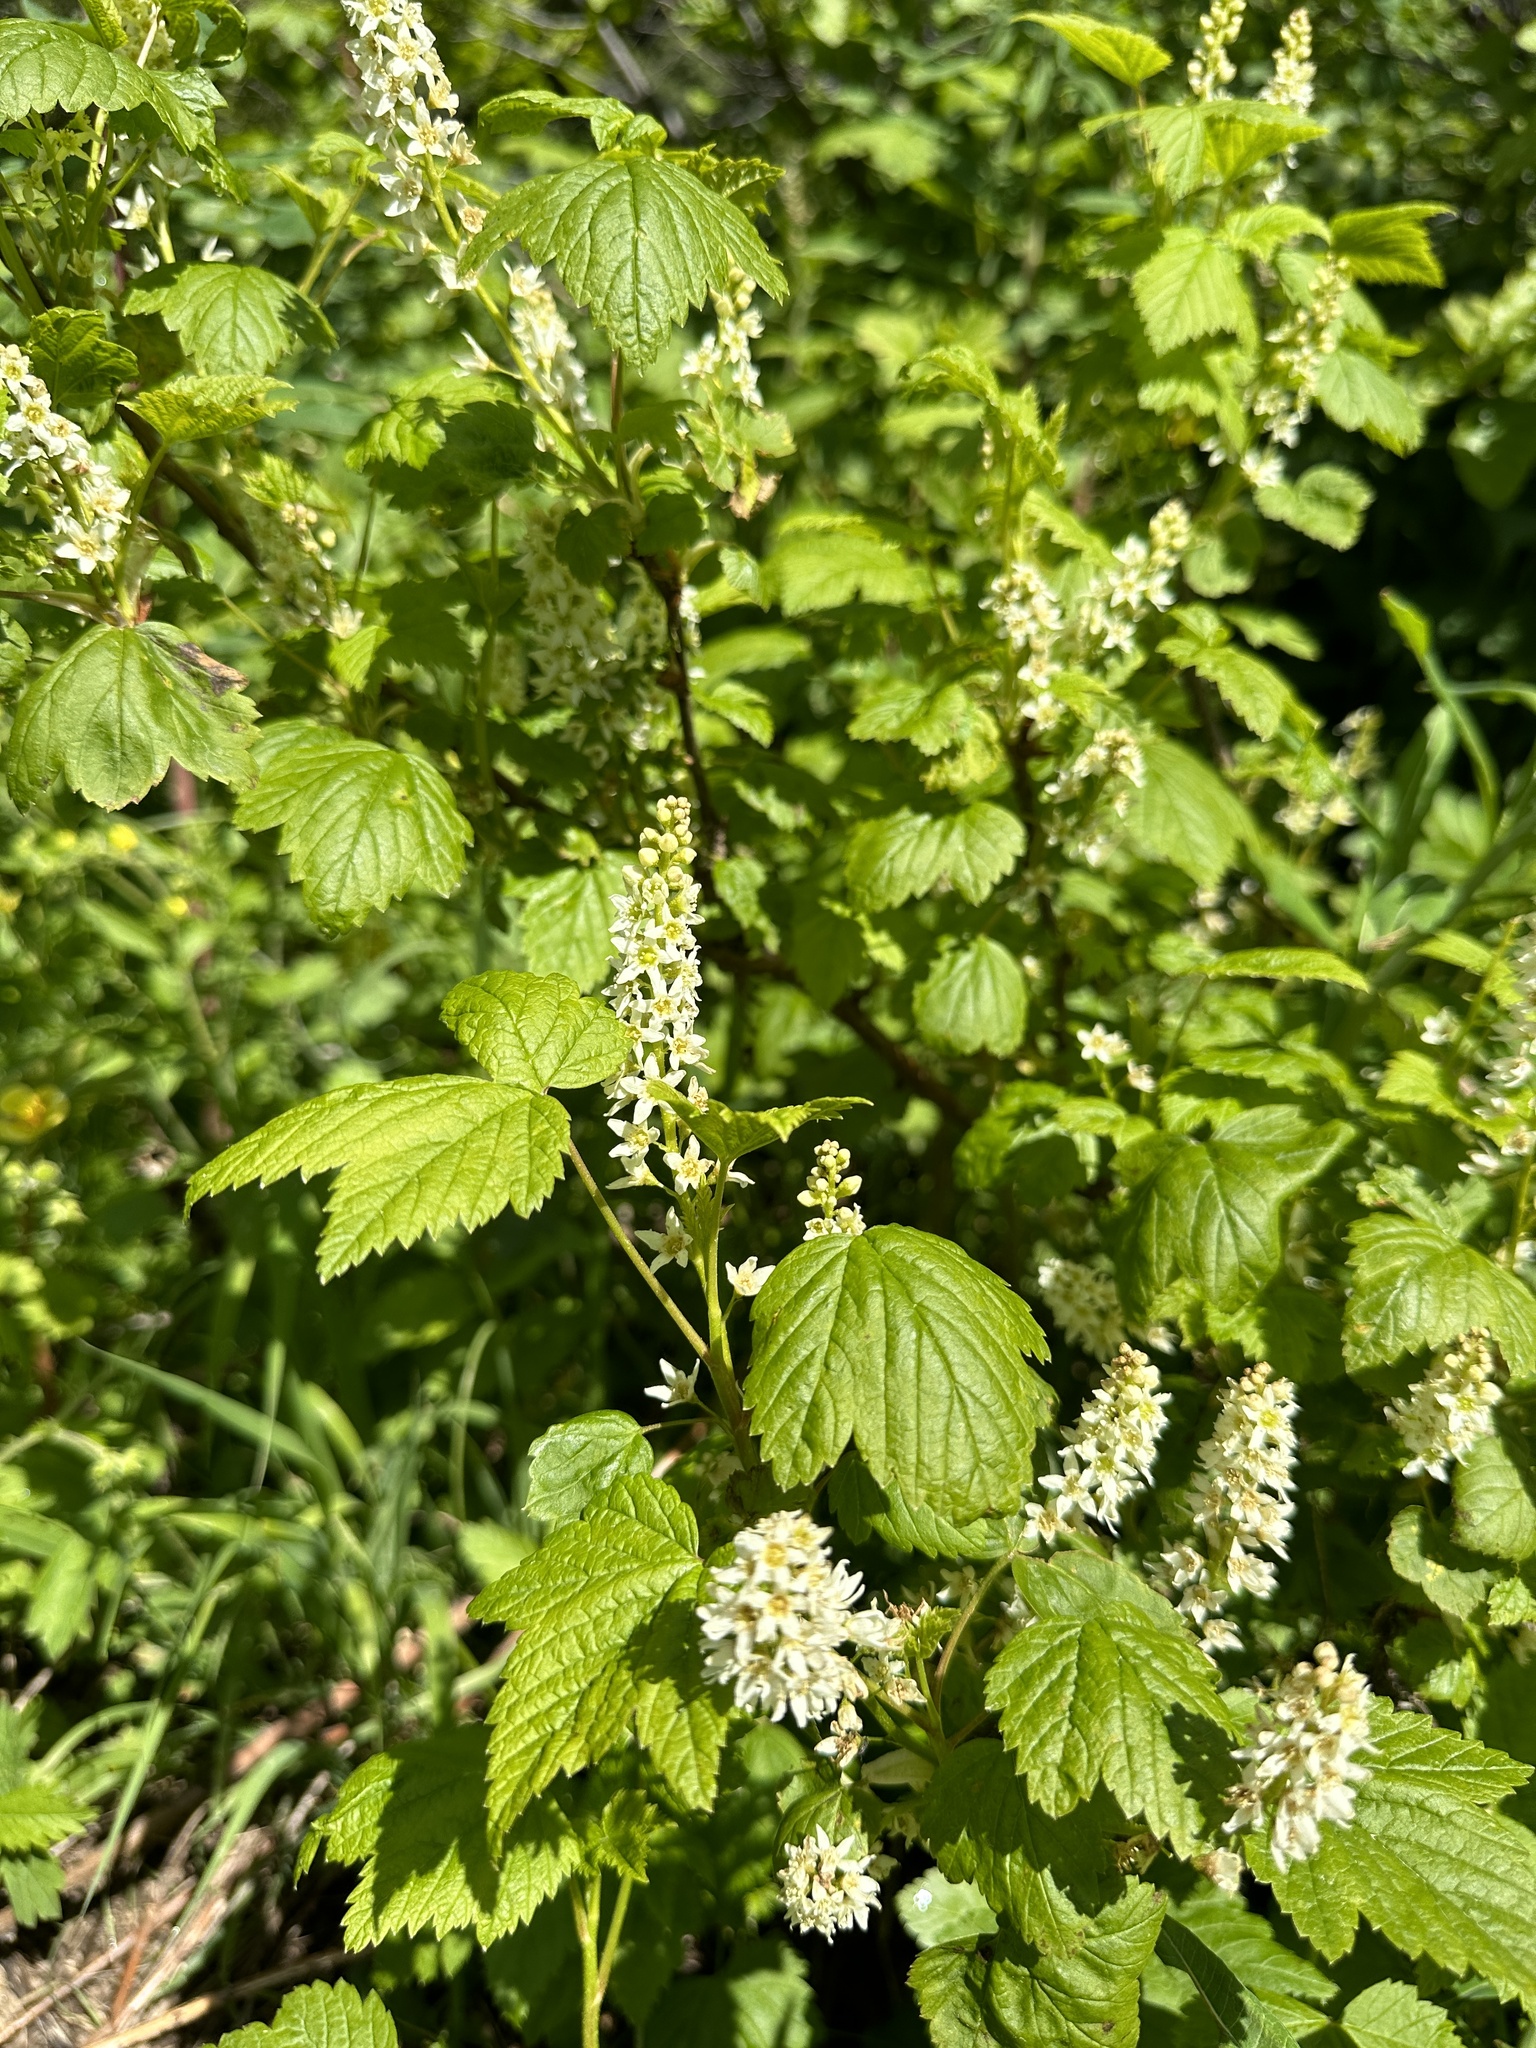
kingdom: Plantae
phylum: Tracheophyta
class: Magnoliopsida
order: Saxifragales
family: Grossulariaceae
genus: Ribes
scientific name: Ribes hudsonianum
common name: Northern black currant
